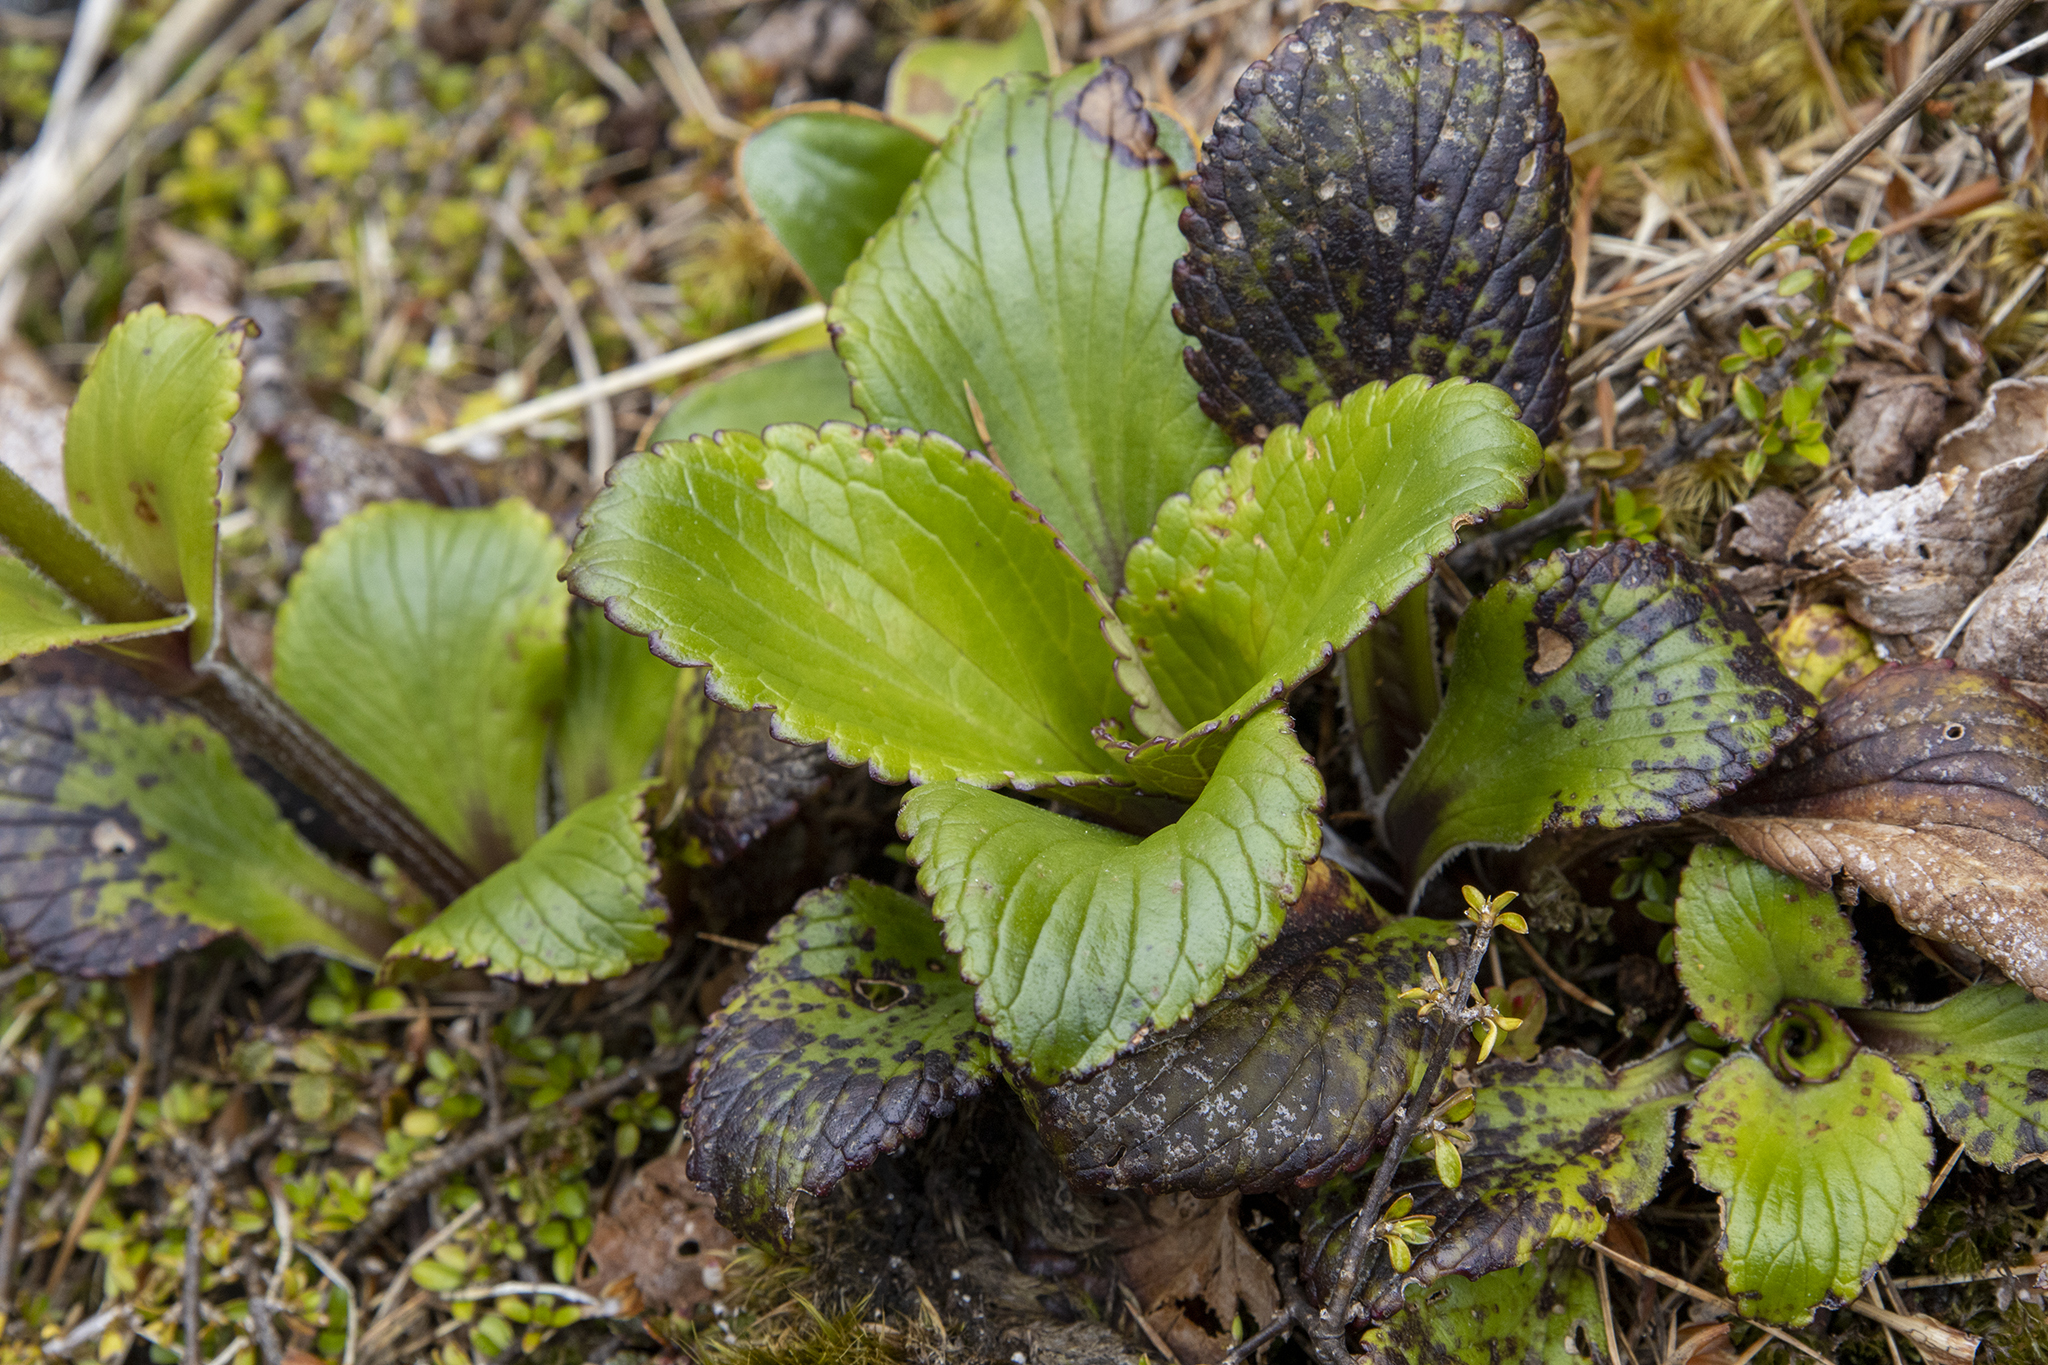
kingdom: Plantae
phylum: Tracheophyta
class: Magnoliopsida
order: Lamiales
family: Plantaginaceae
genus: Ourisia
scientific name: Ourisia calycina
